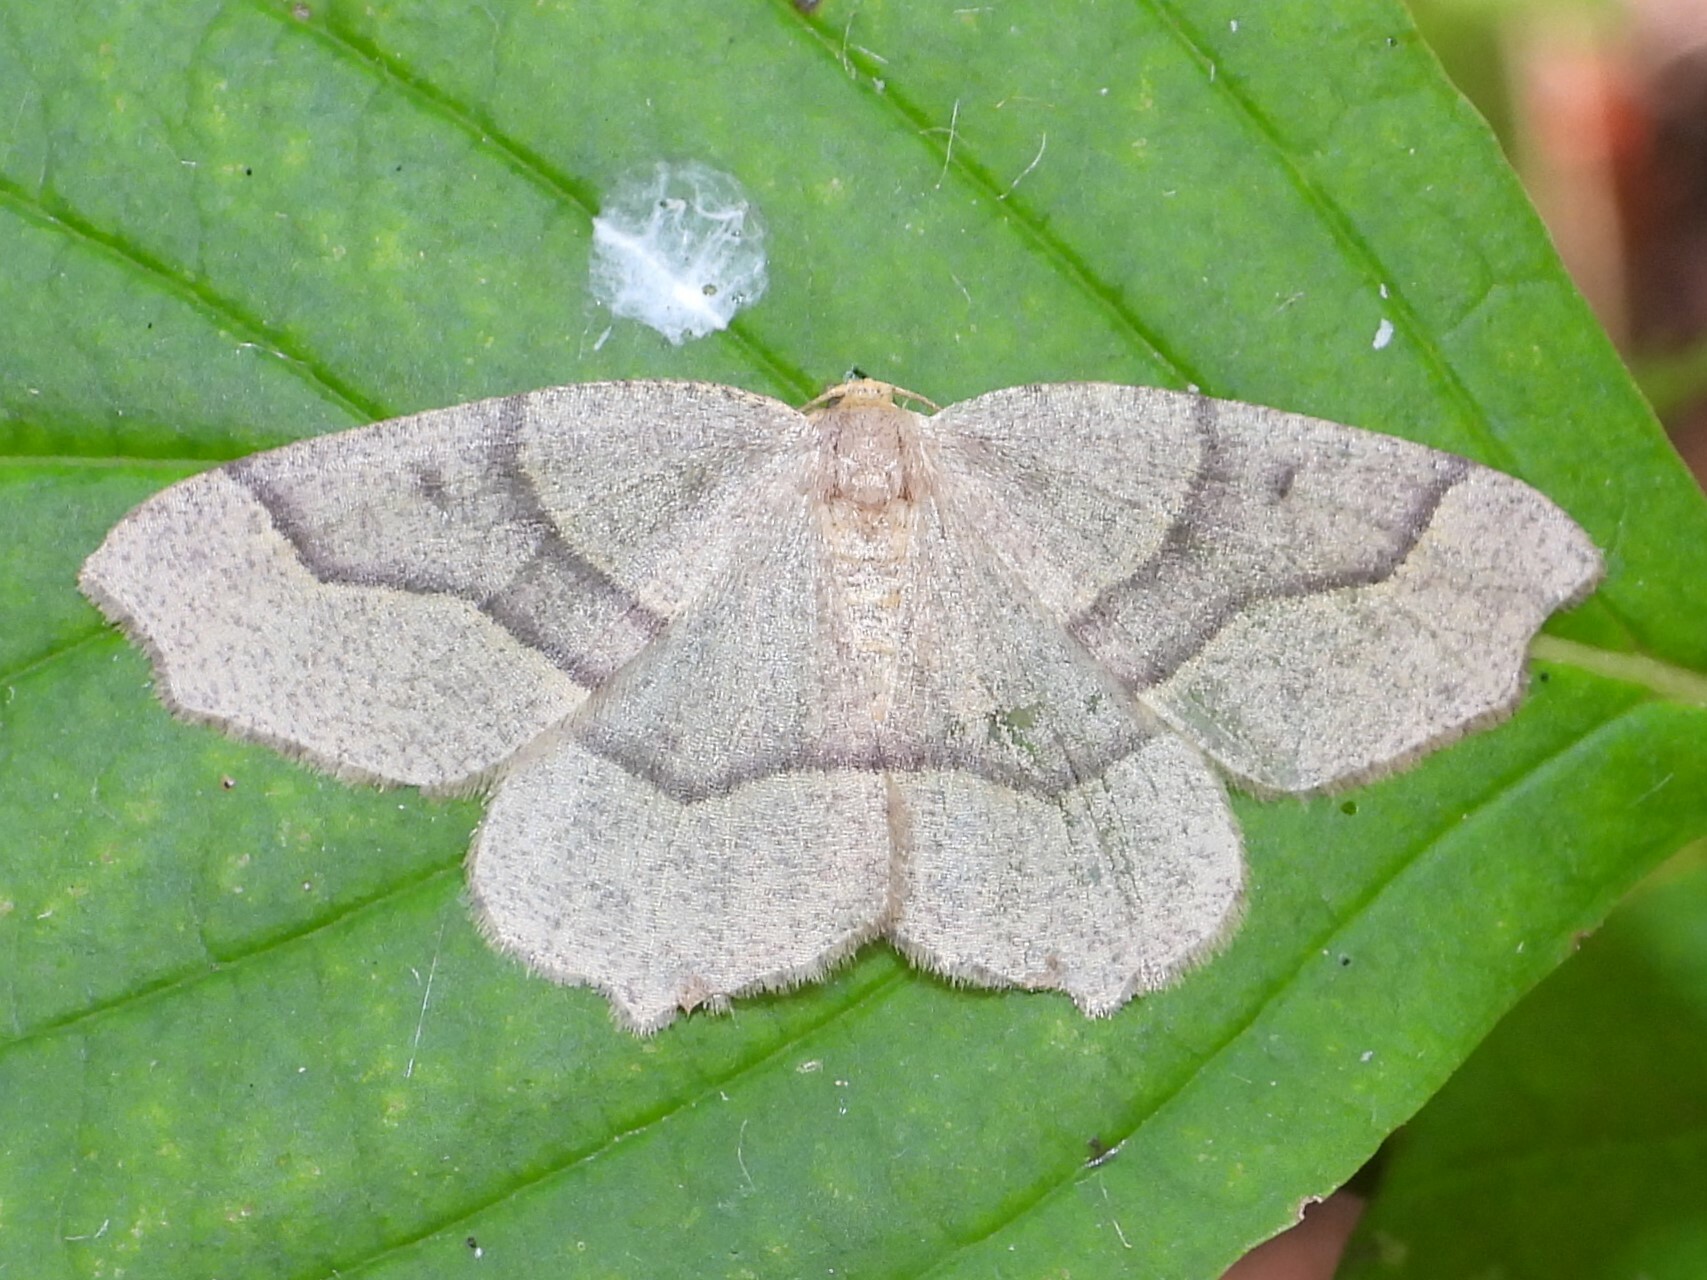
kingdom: Animalia
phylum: Arthropoda
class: Insecta
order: Lepidoptera
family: Geometridae
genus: Lambdina
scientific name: Lambdina fiscellaria
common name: Hemlock looper
